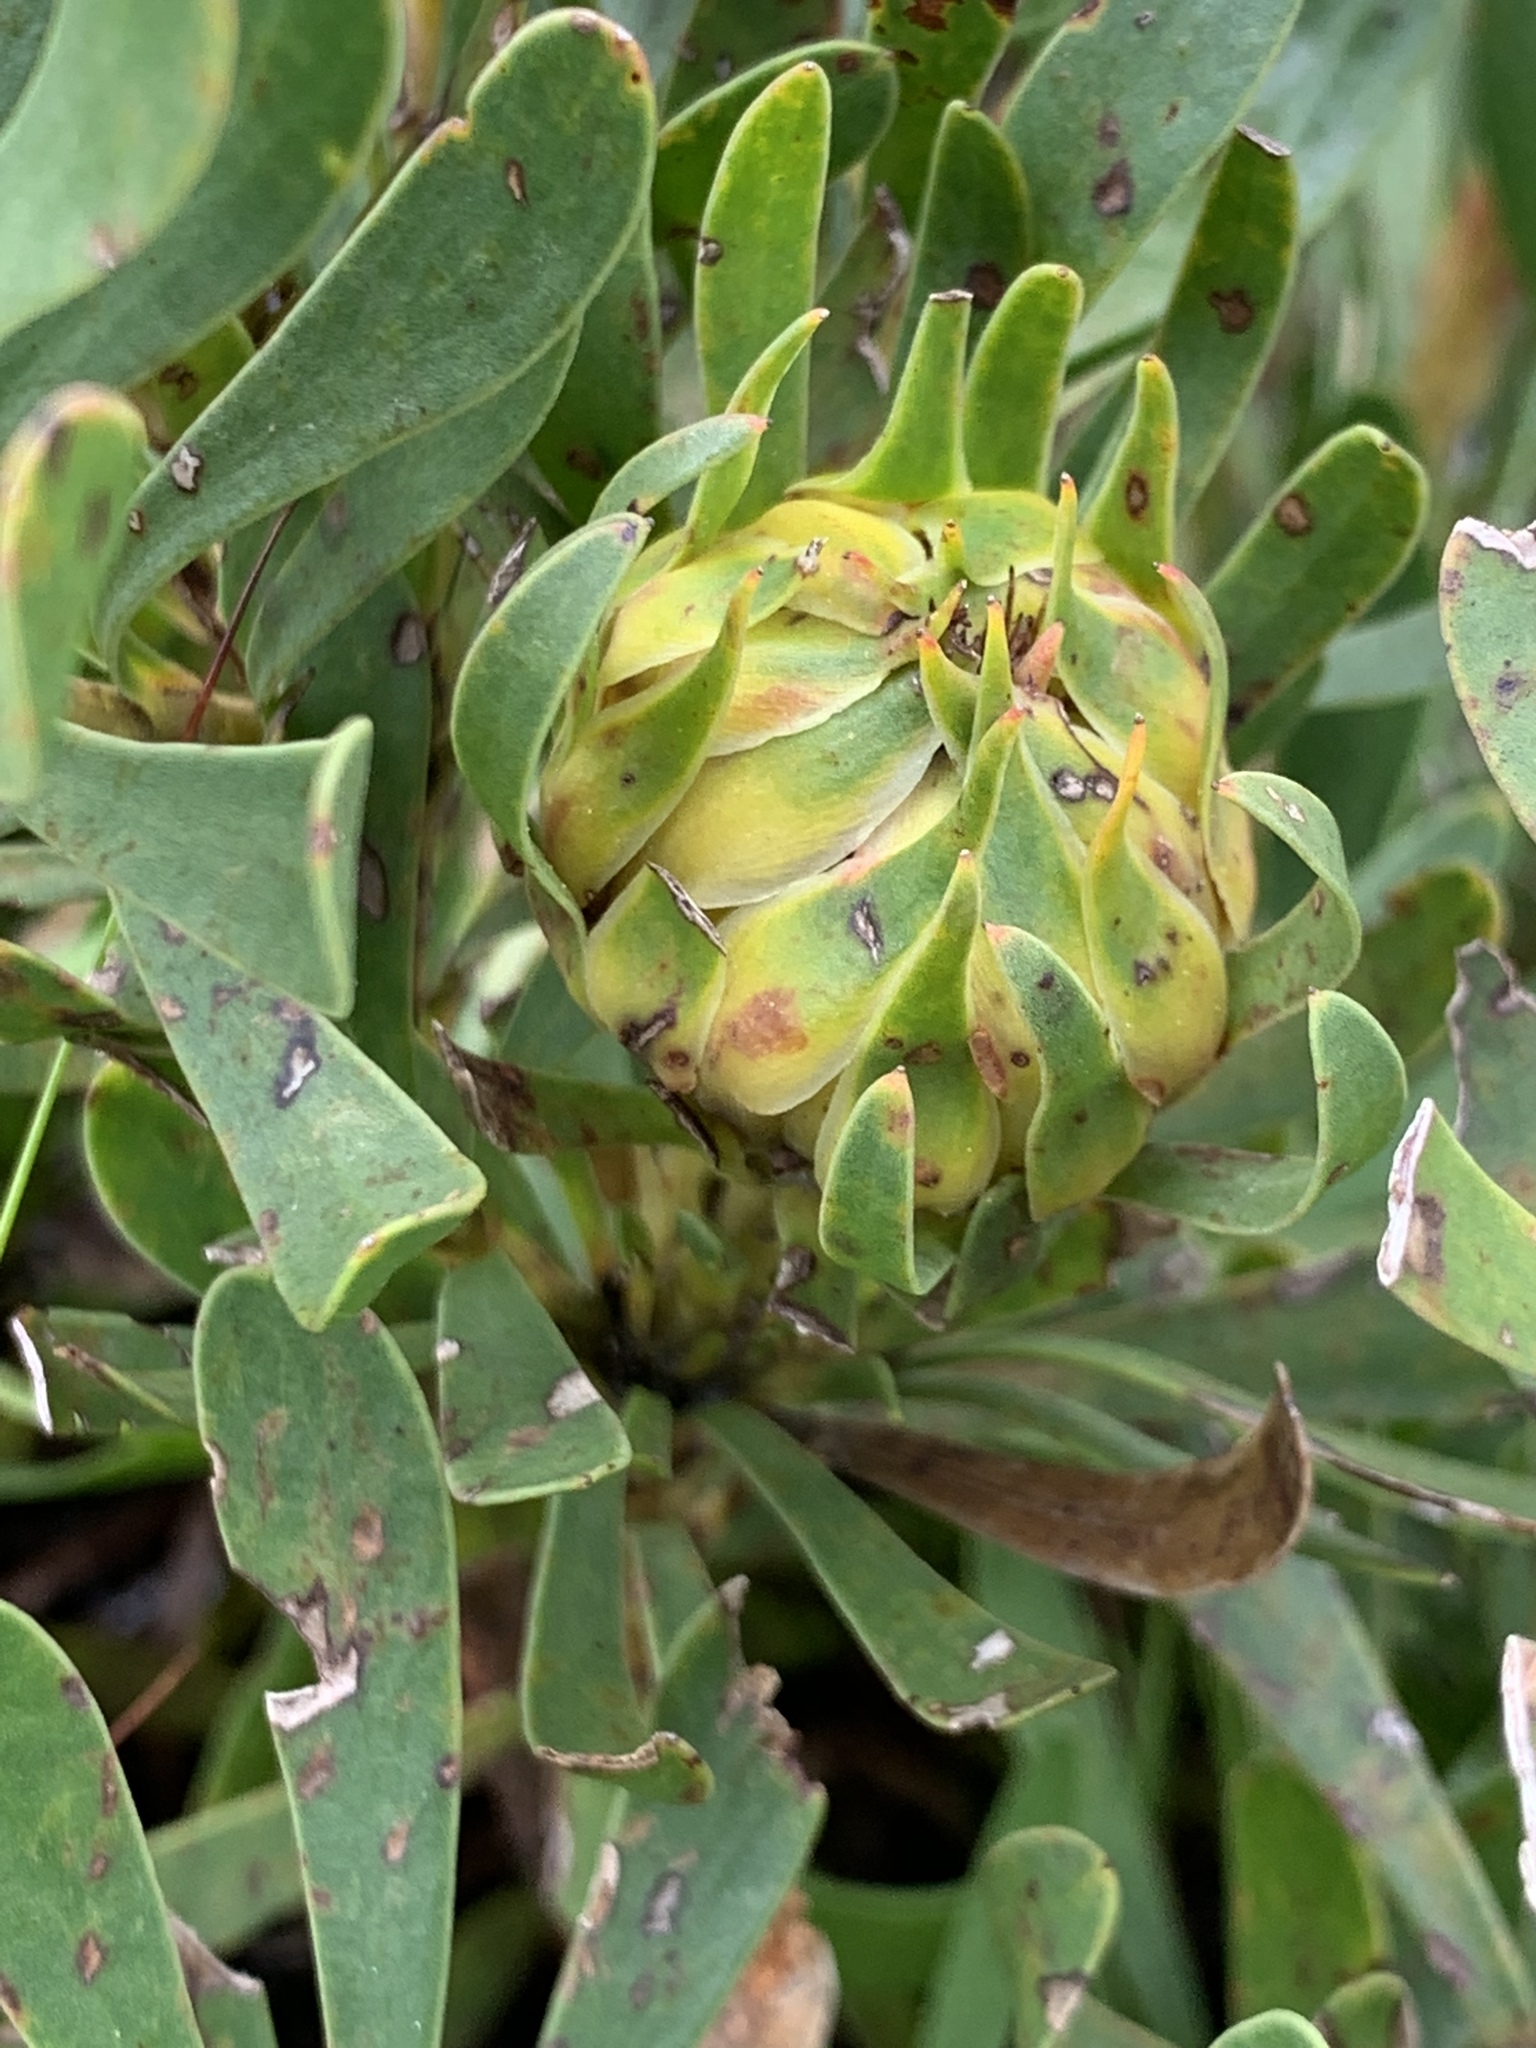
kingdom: Plantae
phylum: Tracheophyta
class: Magnoliopsida
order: Proteales
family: Proteaceae
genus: Aulax
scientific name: Aulax umbellata
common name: Broad-leaf featherbush
